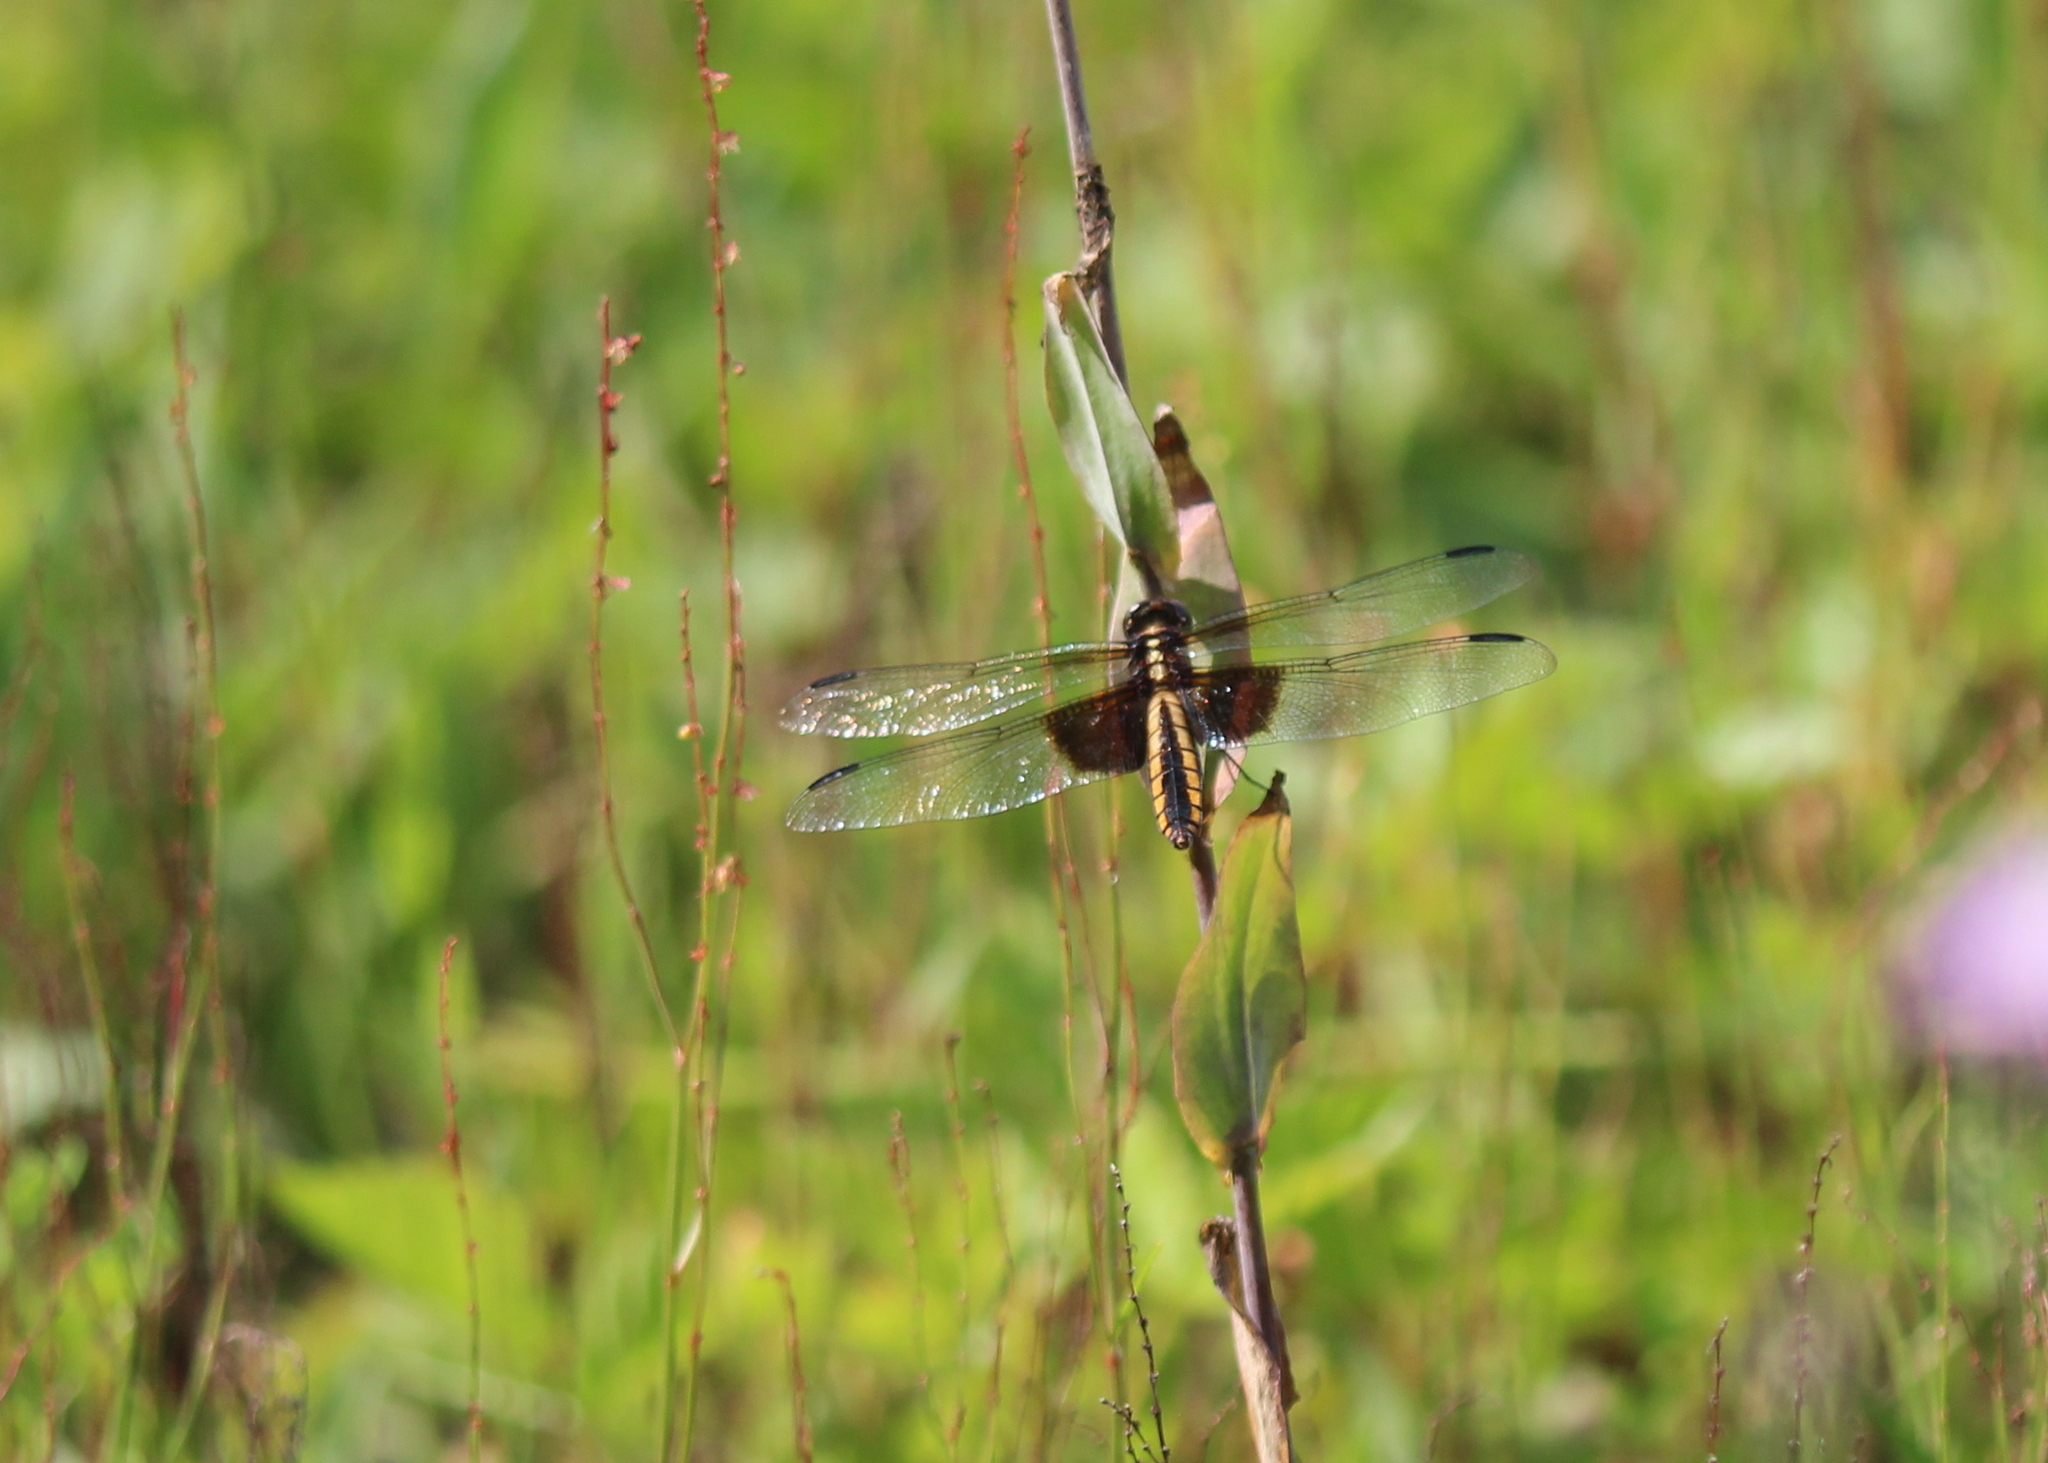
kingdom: Animalia
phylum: Arthropoda
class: Insecta
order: Odonata
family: Libellulidae
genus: Libellula
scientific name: Libellula luctuosa
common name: Widow skimmer
